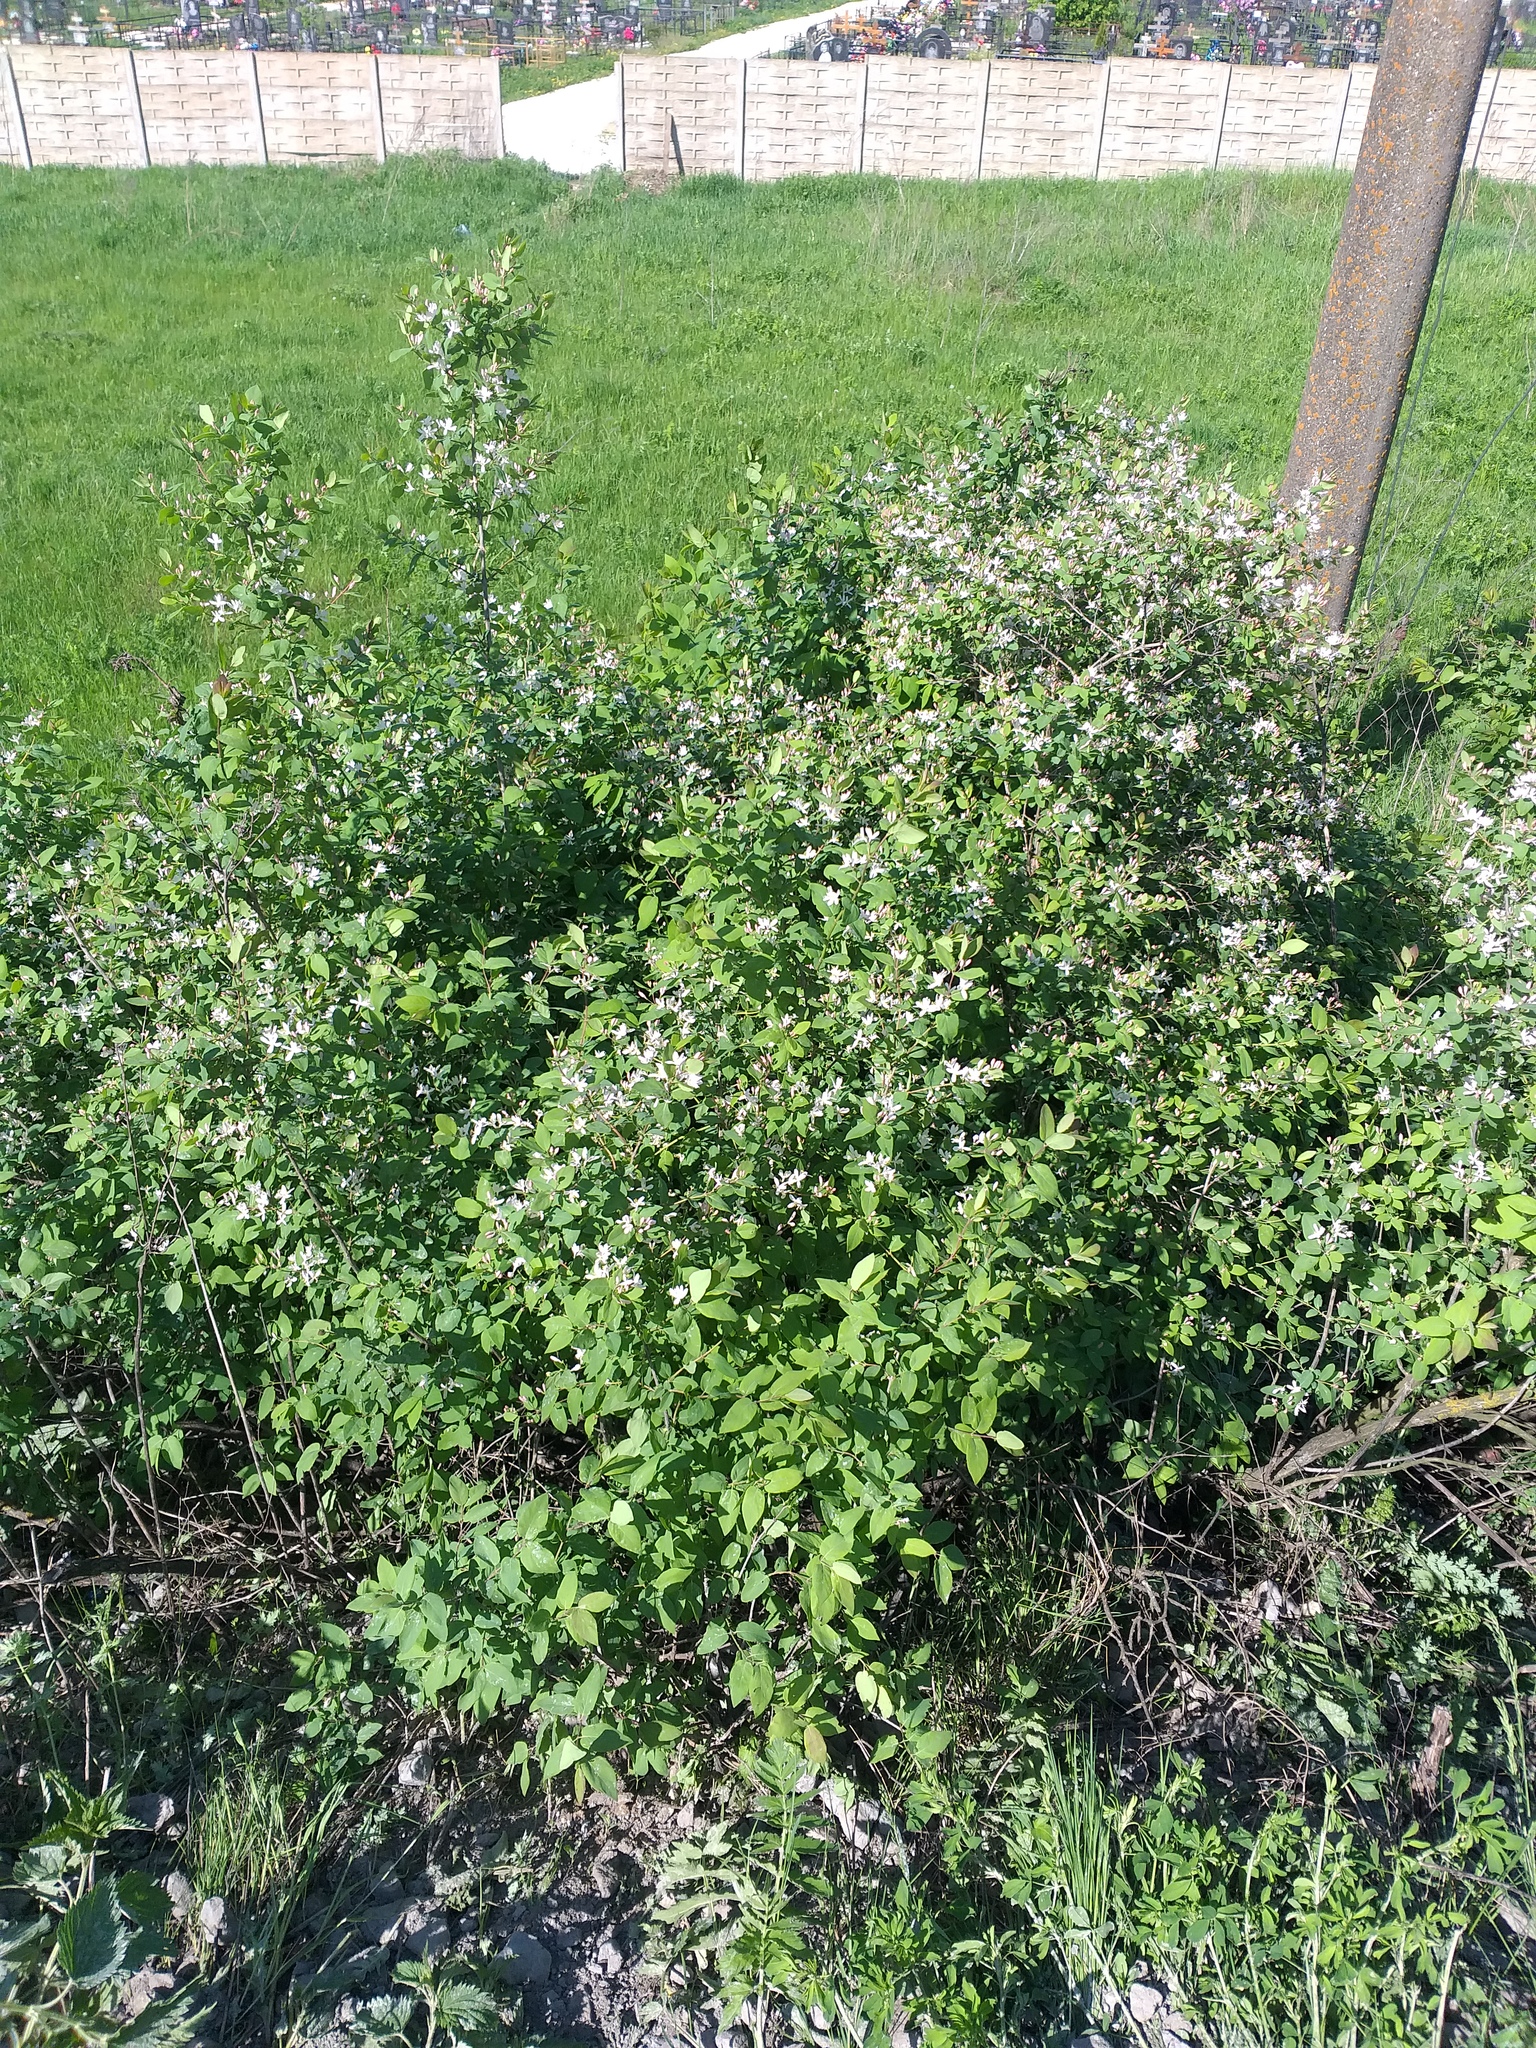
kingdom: Plantae
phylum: Tracheophyta
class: Magnoliopsida
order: Dipsacales
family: Caprifoliaceae
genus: Lonicera
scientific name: Lonicera tatarica
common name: Tatarian honeysuckle
